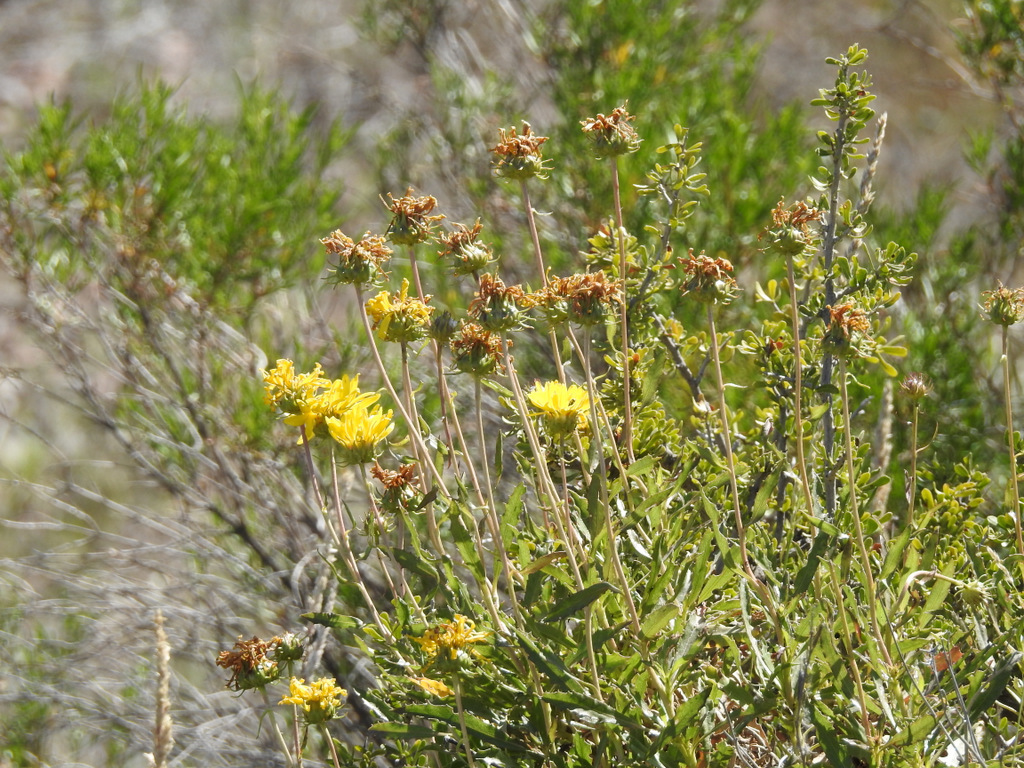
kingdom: Plantae
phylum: Tracheophyta
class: Magnoliopsida
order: Asterales
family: Asteraceae
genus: Grindelia
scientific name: Grindelia chiloensis
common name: Shrubby gumweed
